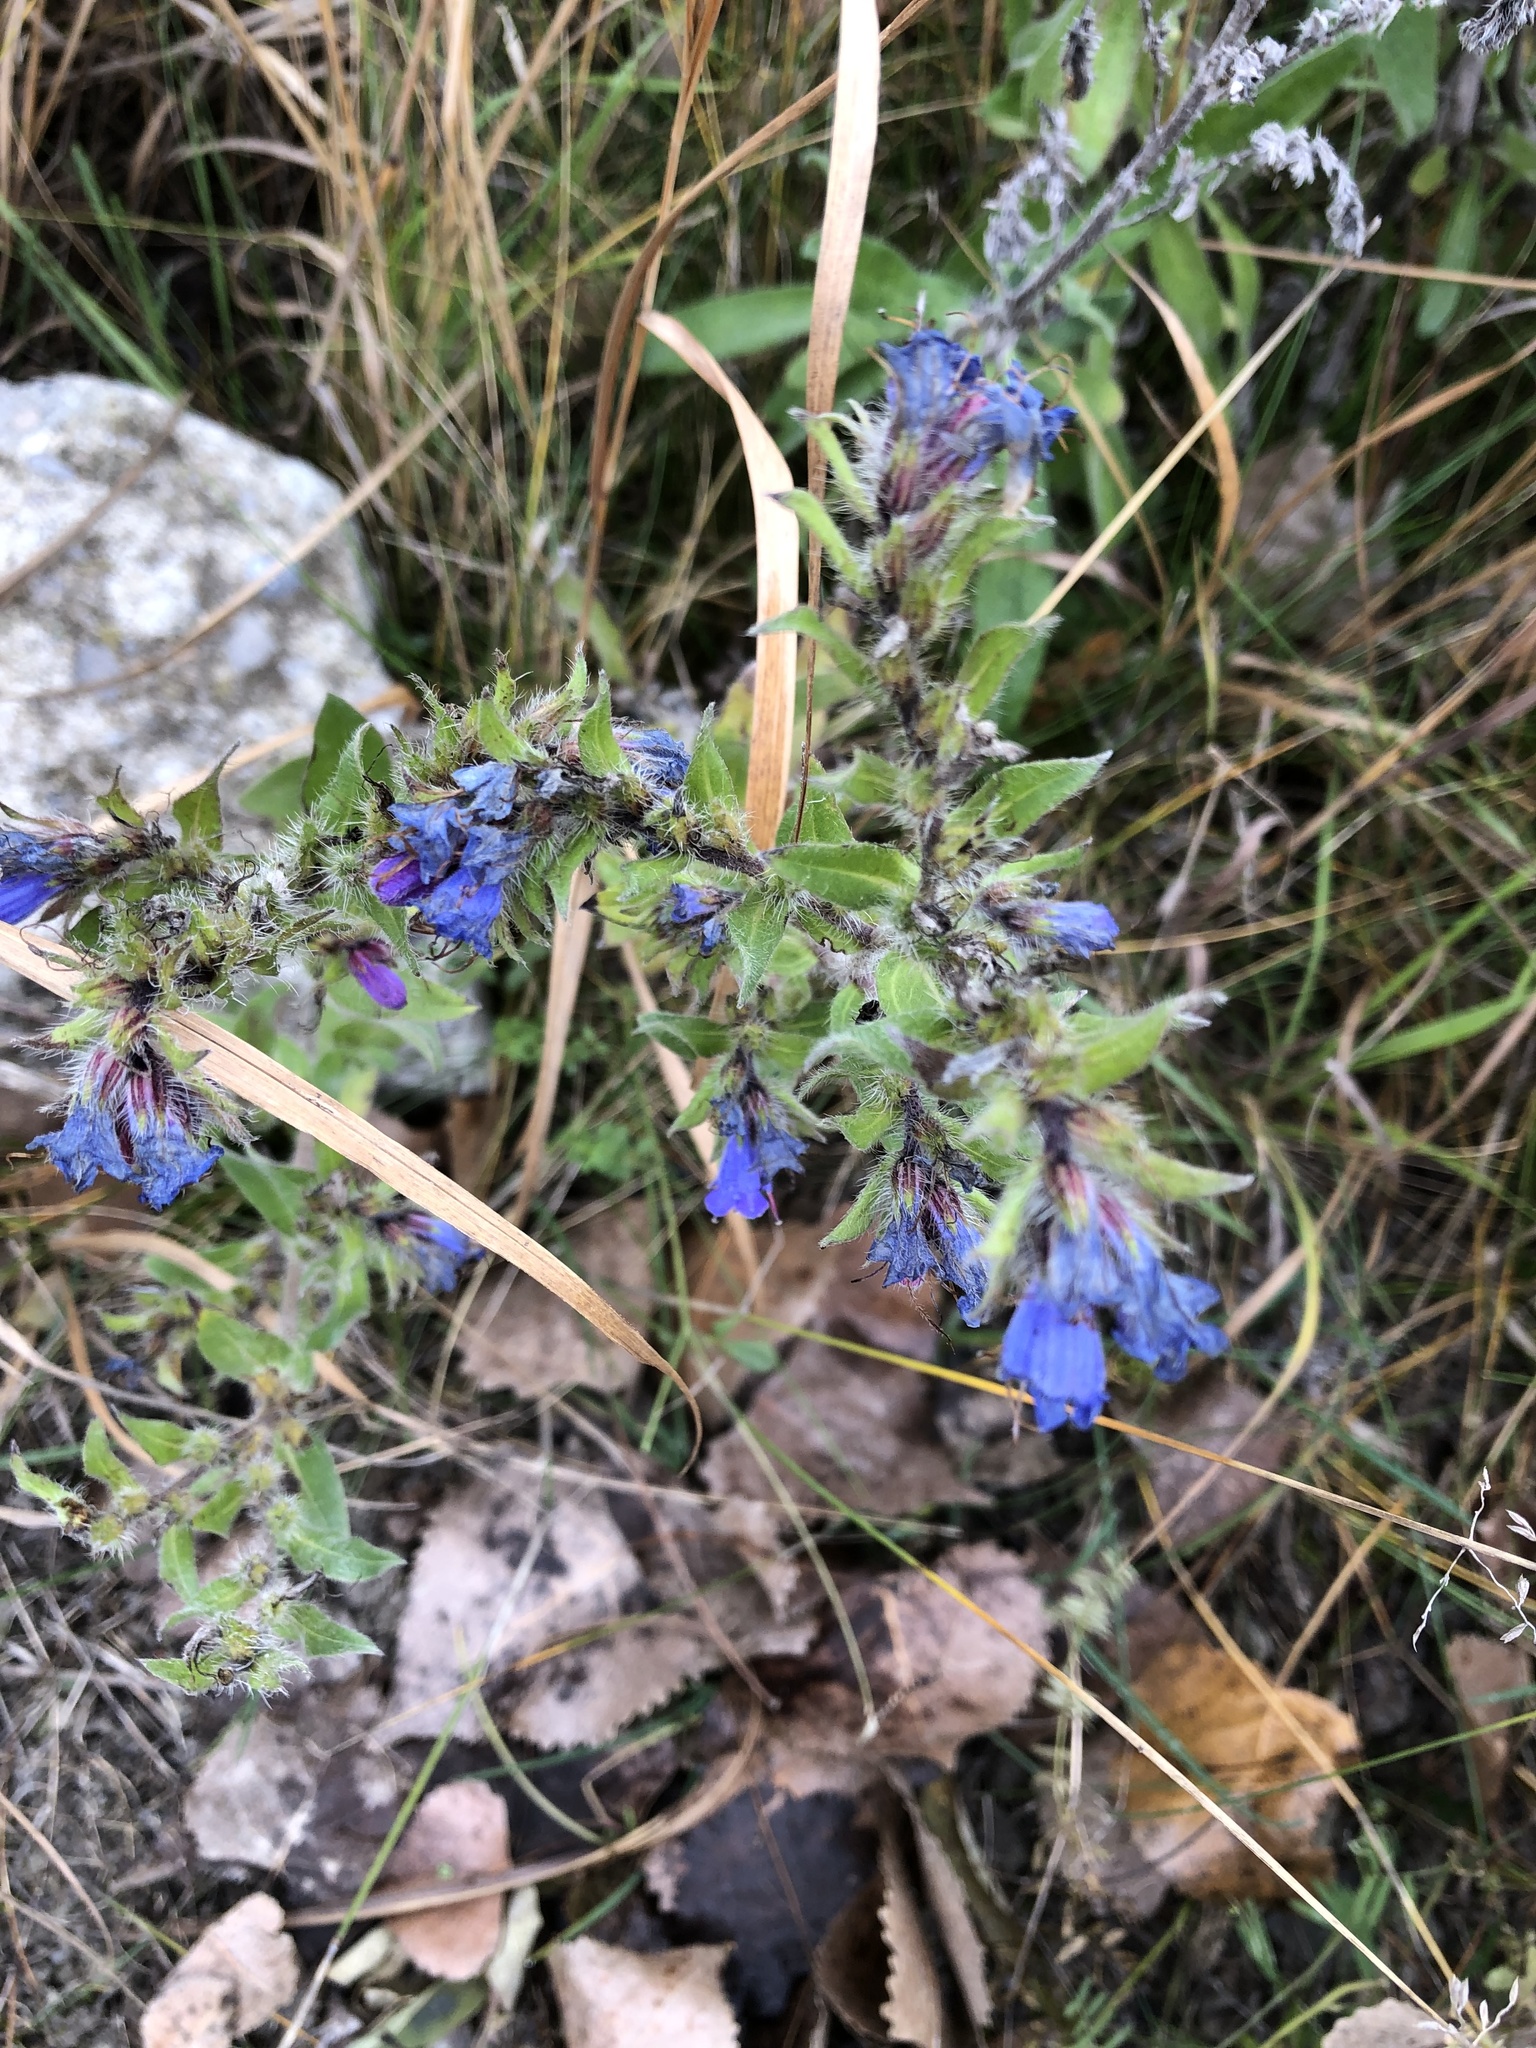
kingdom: Plantae
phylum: Tracheophyta
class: Magnoliopsida
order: Boraginales
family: Boraginaceae
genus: Echium
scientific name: Echium vulgare
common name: Common viper's bugloss
